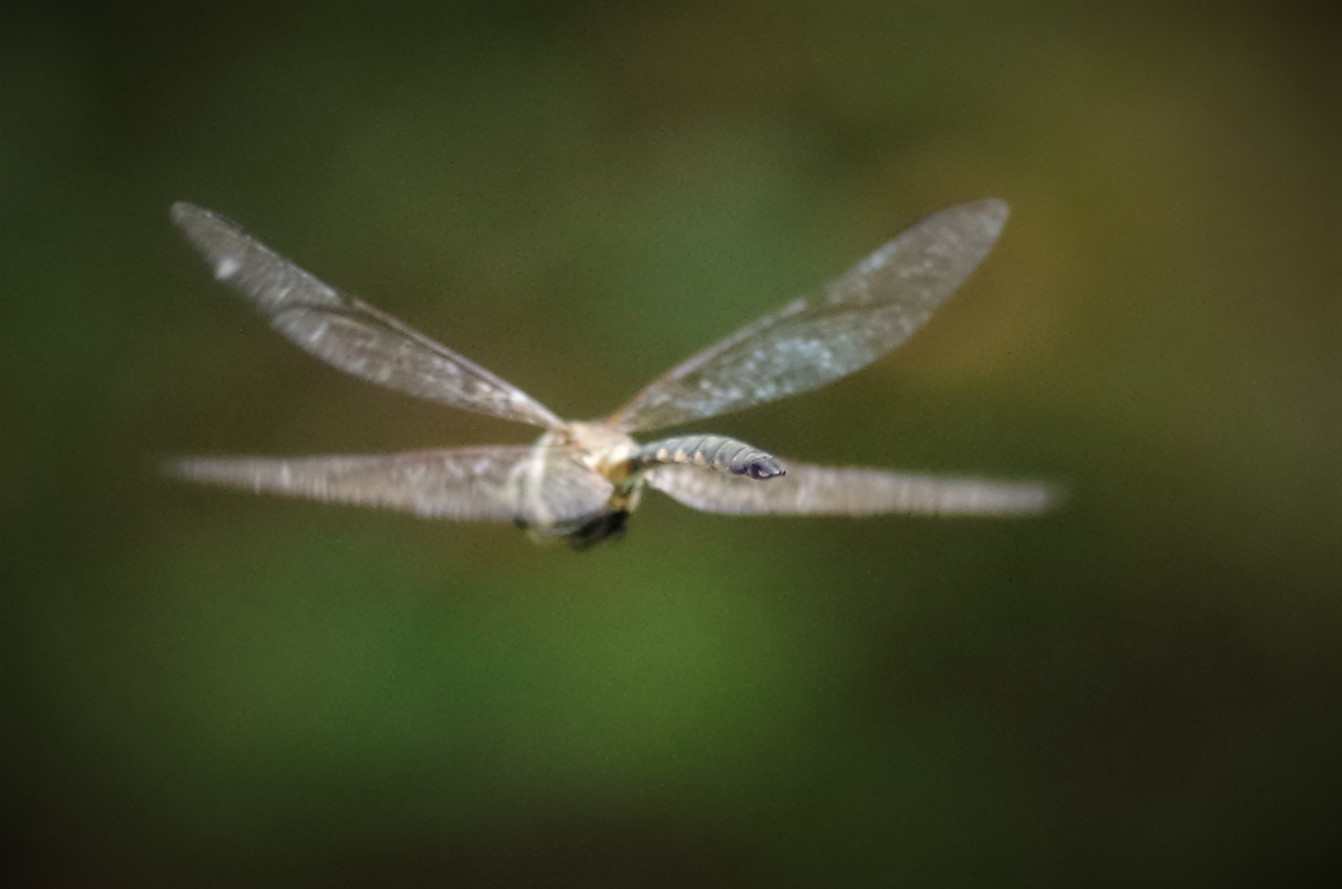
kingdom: Animalia
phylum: Arthropoda
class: Insecta
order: Odonata
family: Corduliidae
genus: Somatochlora
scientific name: Somatochlora flavomaculata
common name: Yellow-spotted emerald
